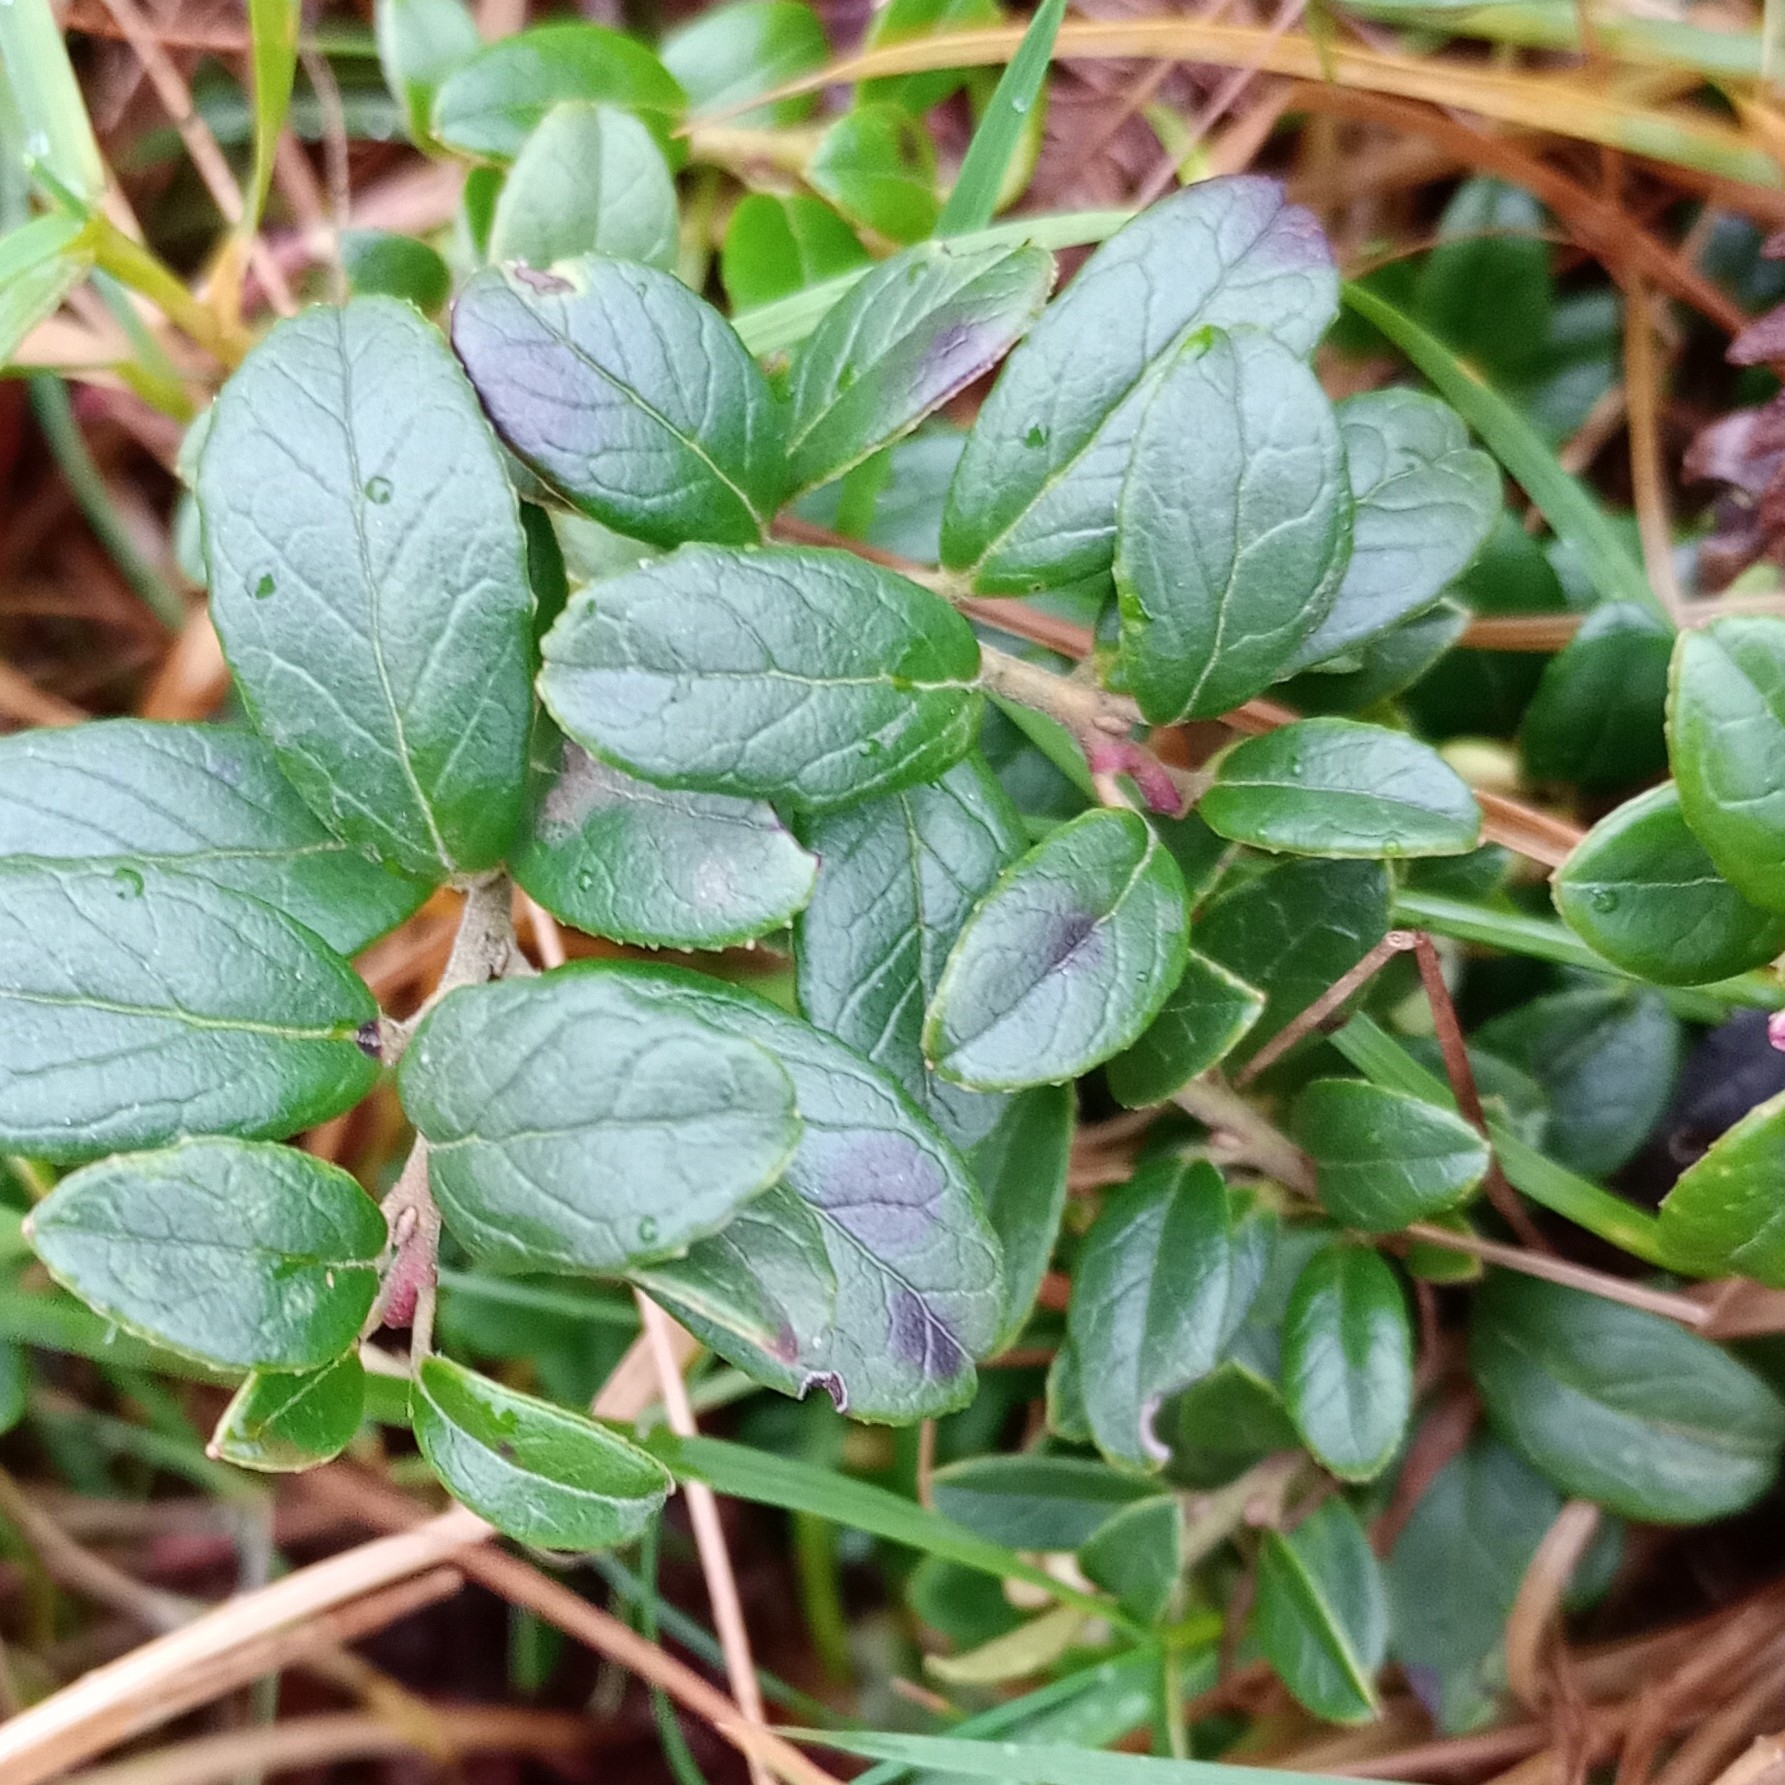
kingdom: Plantae
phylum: Tracheophyta
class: Magnoliopsida
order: Ericales
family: Ericaceae
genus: Vaccinium
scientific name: Vaccinium vitis-idaea
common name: Cowberry
